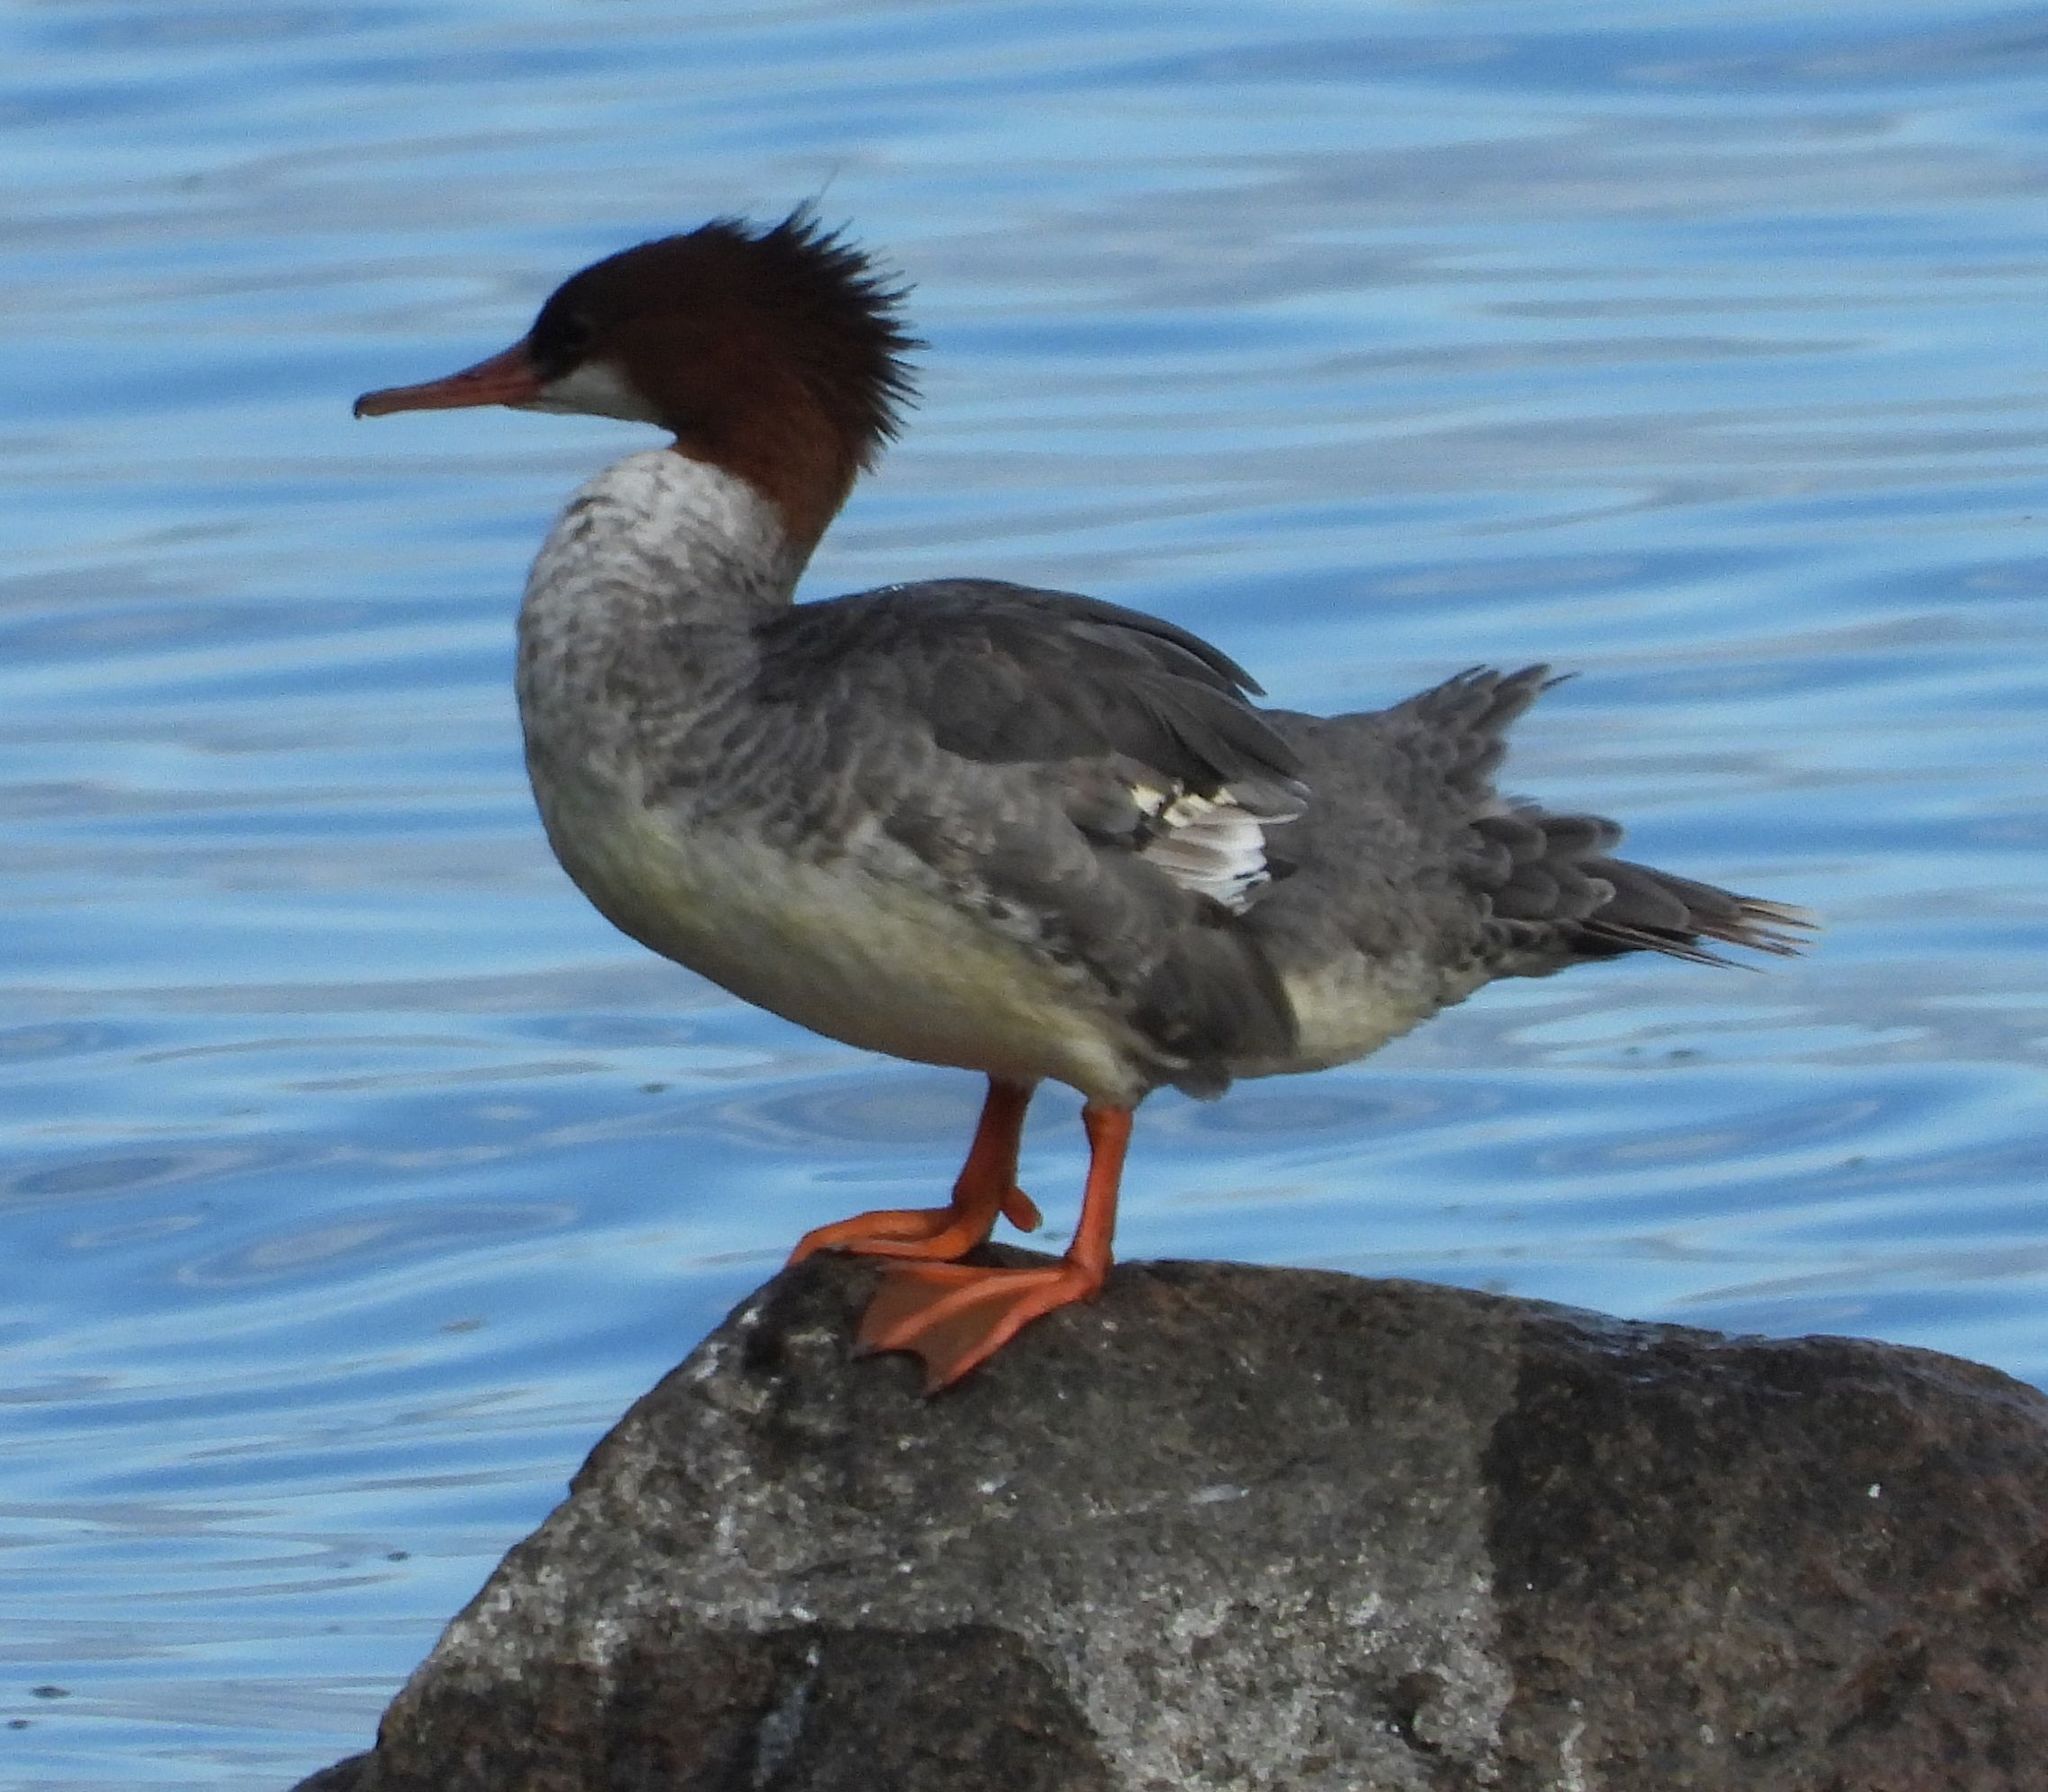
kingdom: Animalia
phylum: Chordata
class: Aves
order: Anseriformes
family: Anatidae
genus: Mergus
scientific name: Mergus merganser
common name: Common merganser
